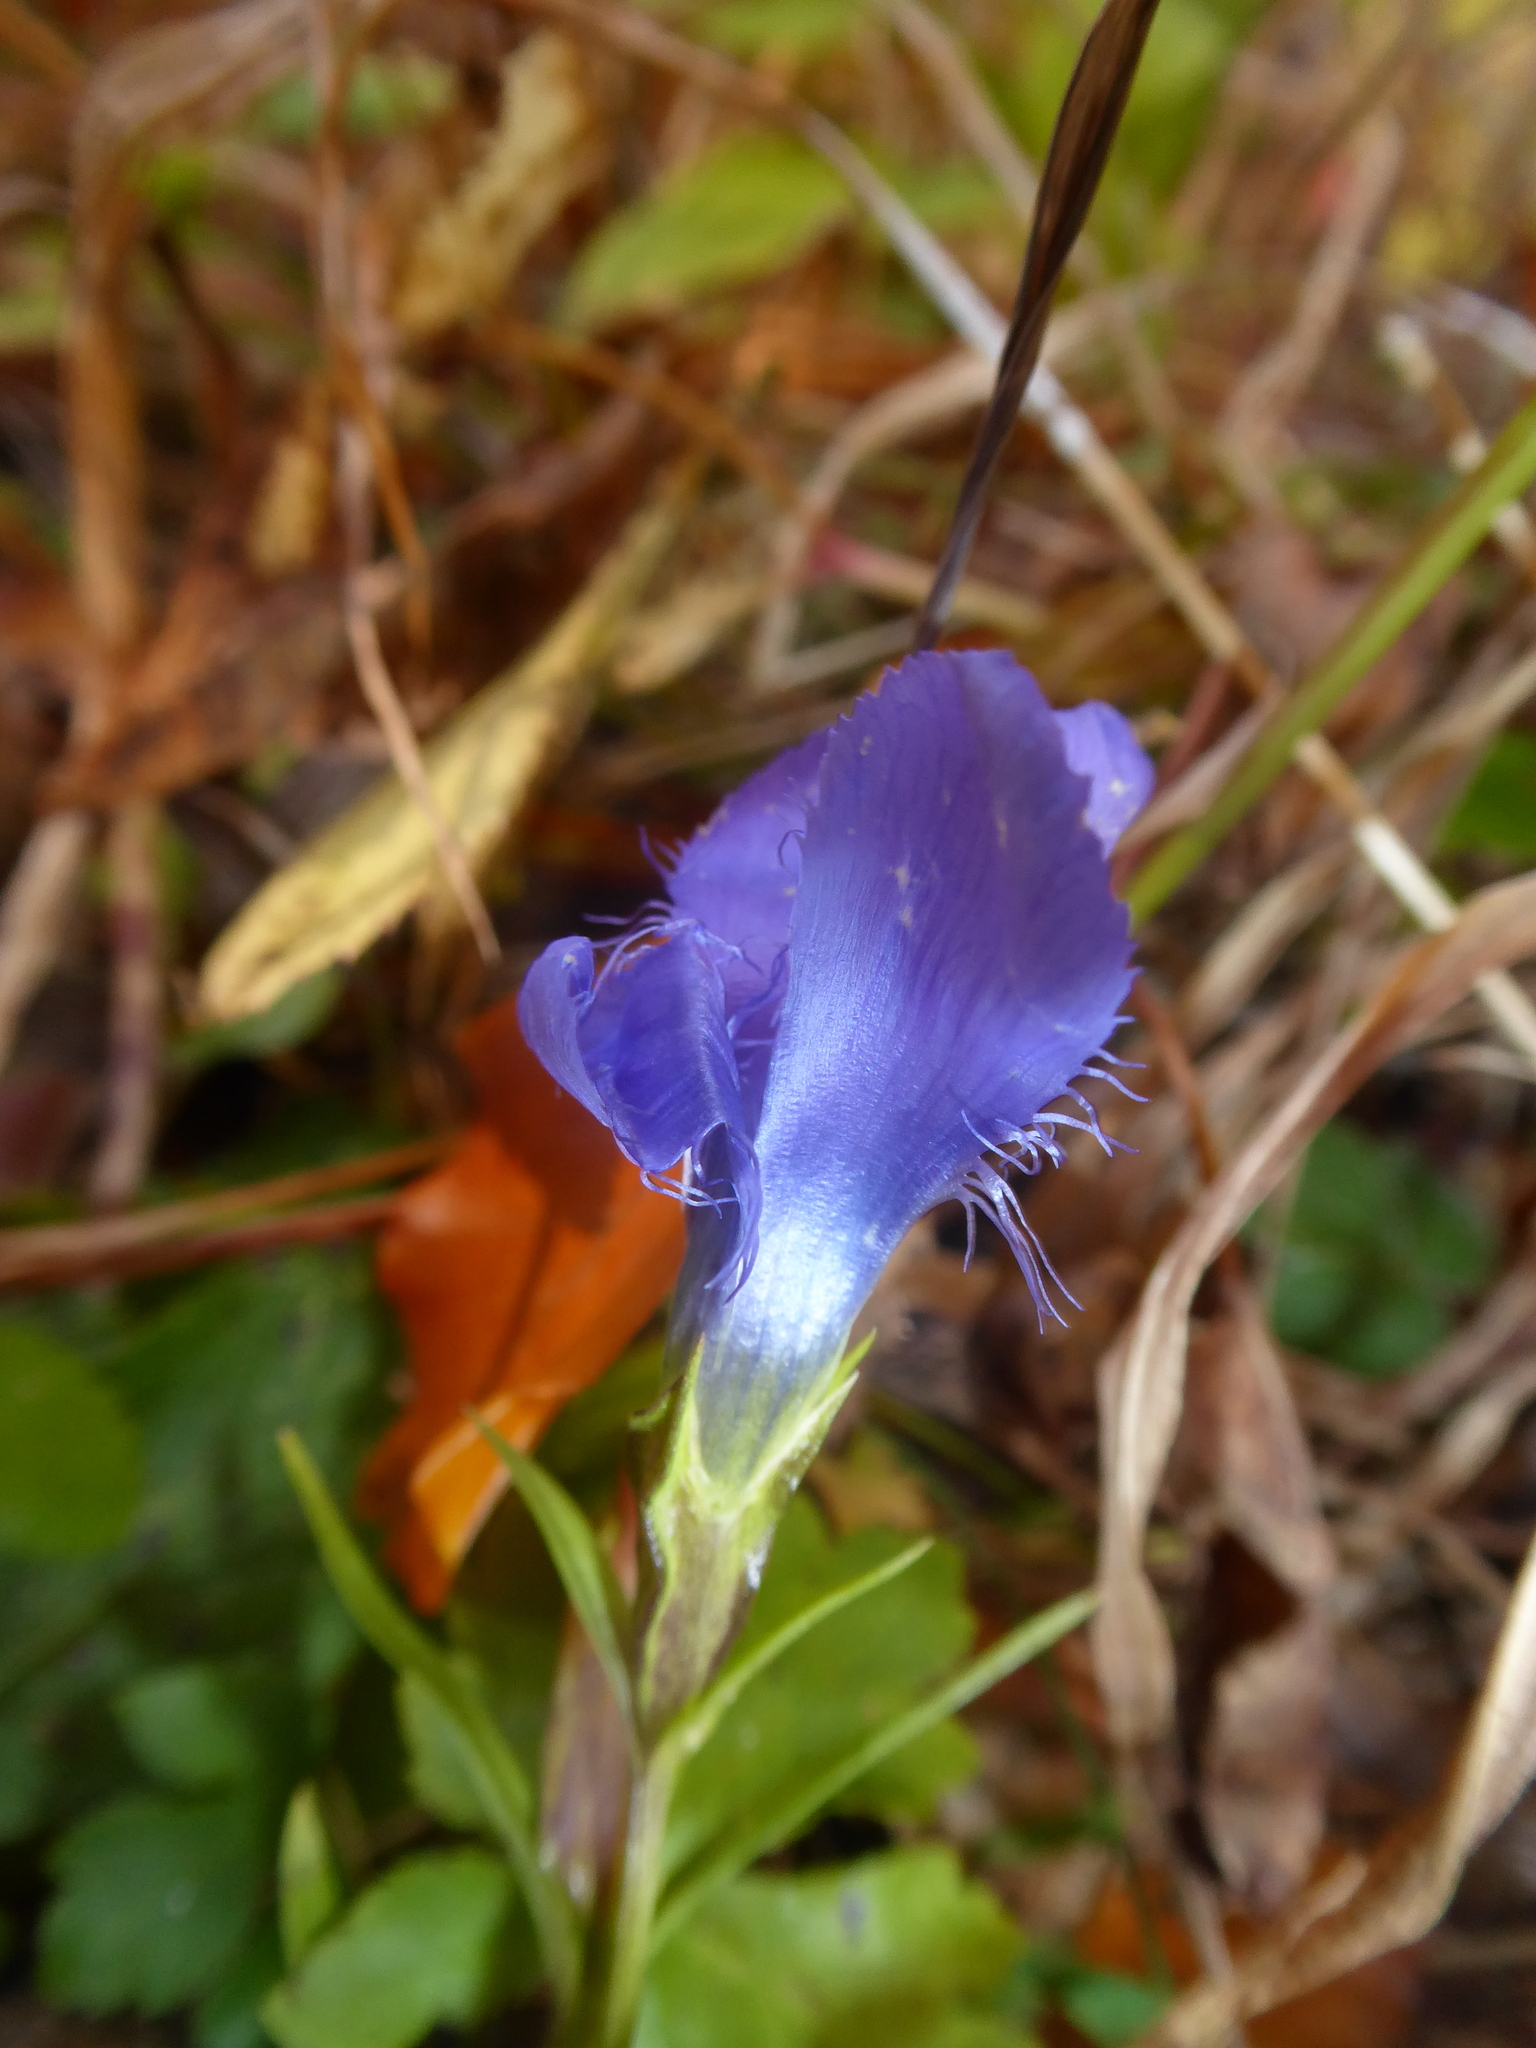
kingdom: Plantae
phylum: Tracheophyta
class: Magnoliopsida
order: Gentianales
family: Gentianaceae
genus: Gentianopsis
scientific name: Gentianopsis ciliata
